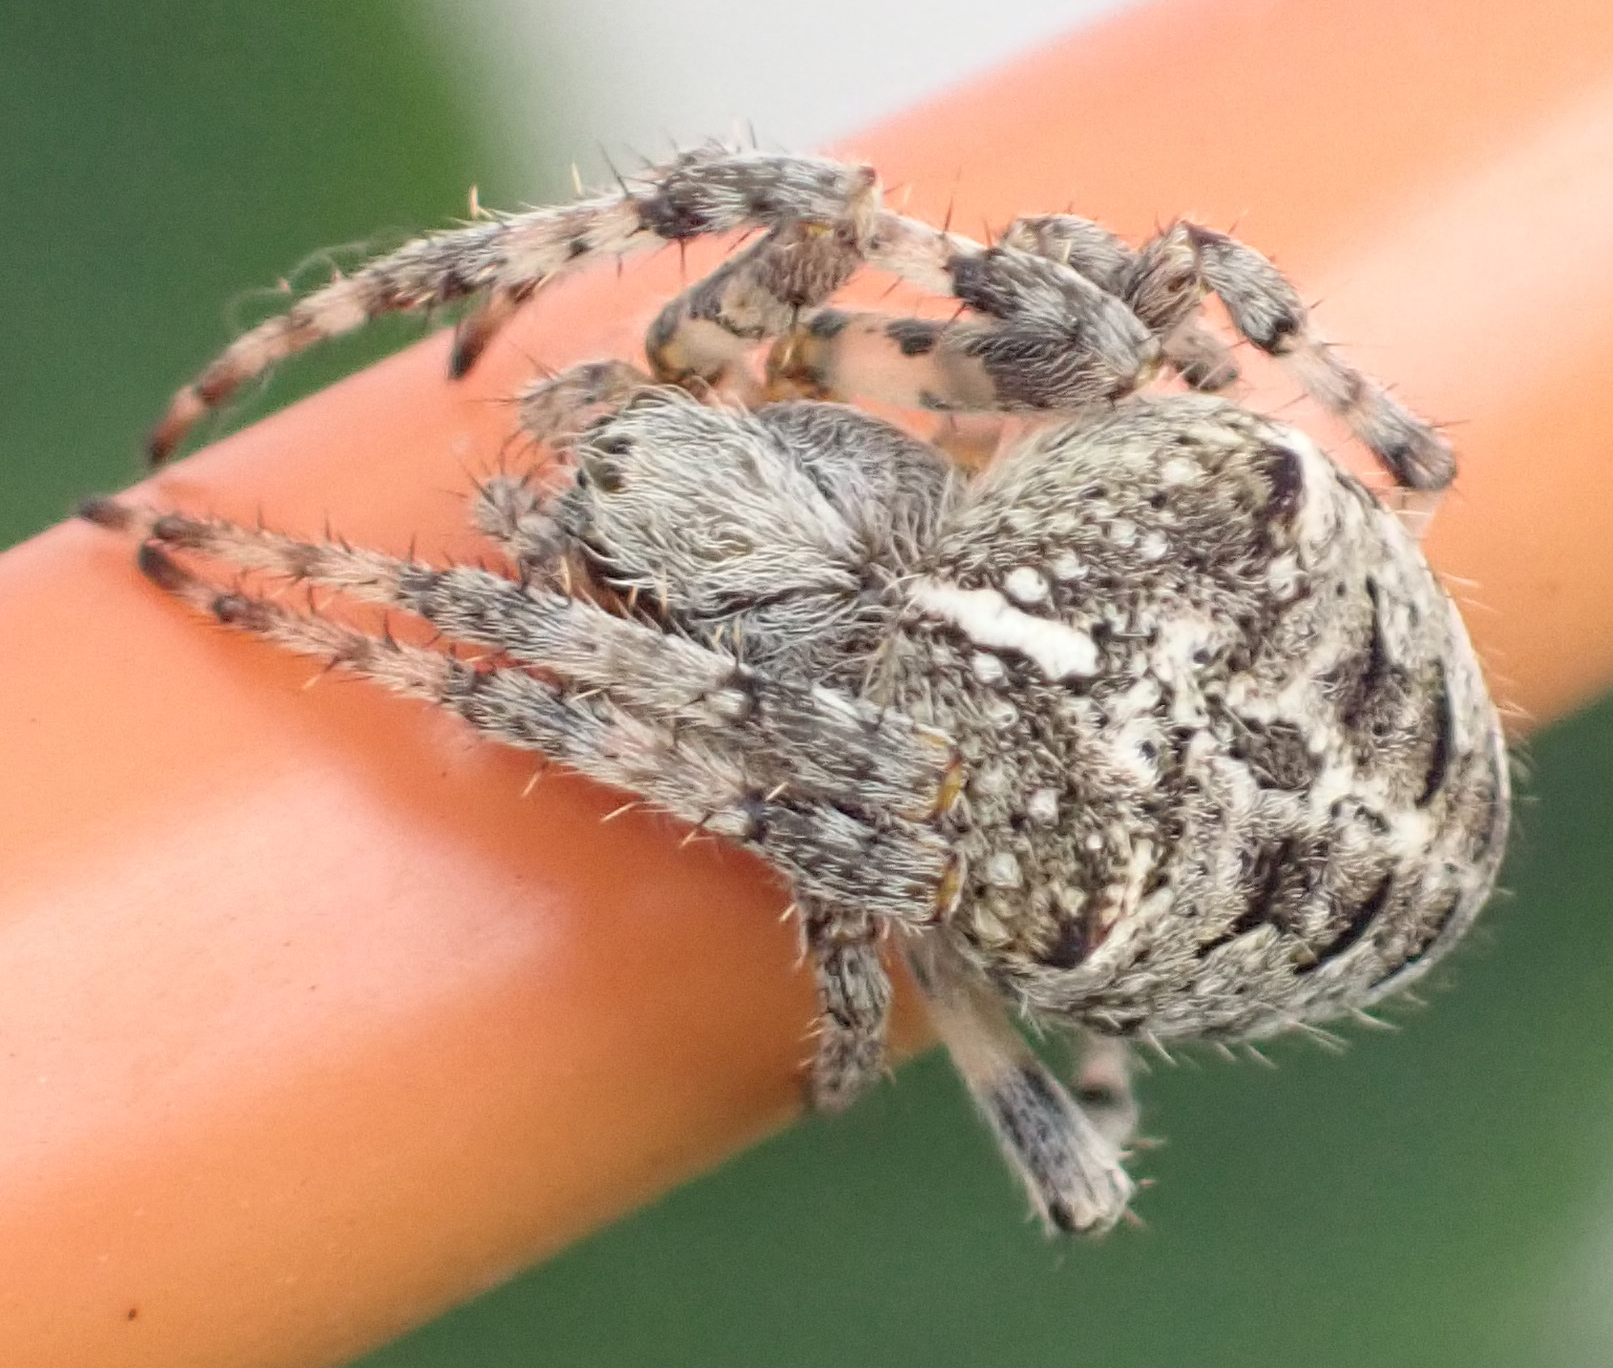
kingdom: Animalia
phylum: Arthropoda
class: Arachnida
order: Araneae
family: Araneidae
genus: Araneus
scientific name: Araneus nordmanni
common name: Nordmann's orbweaver
